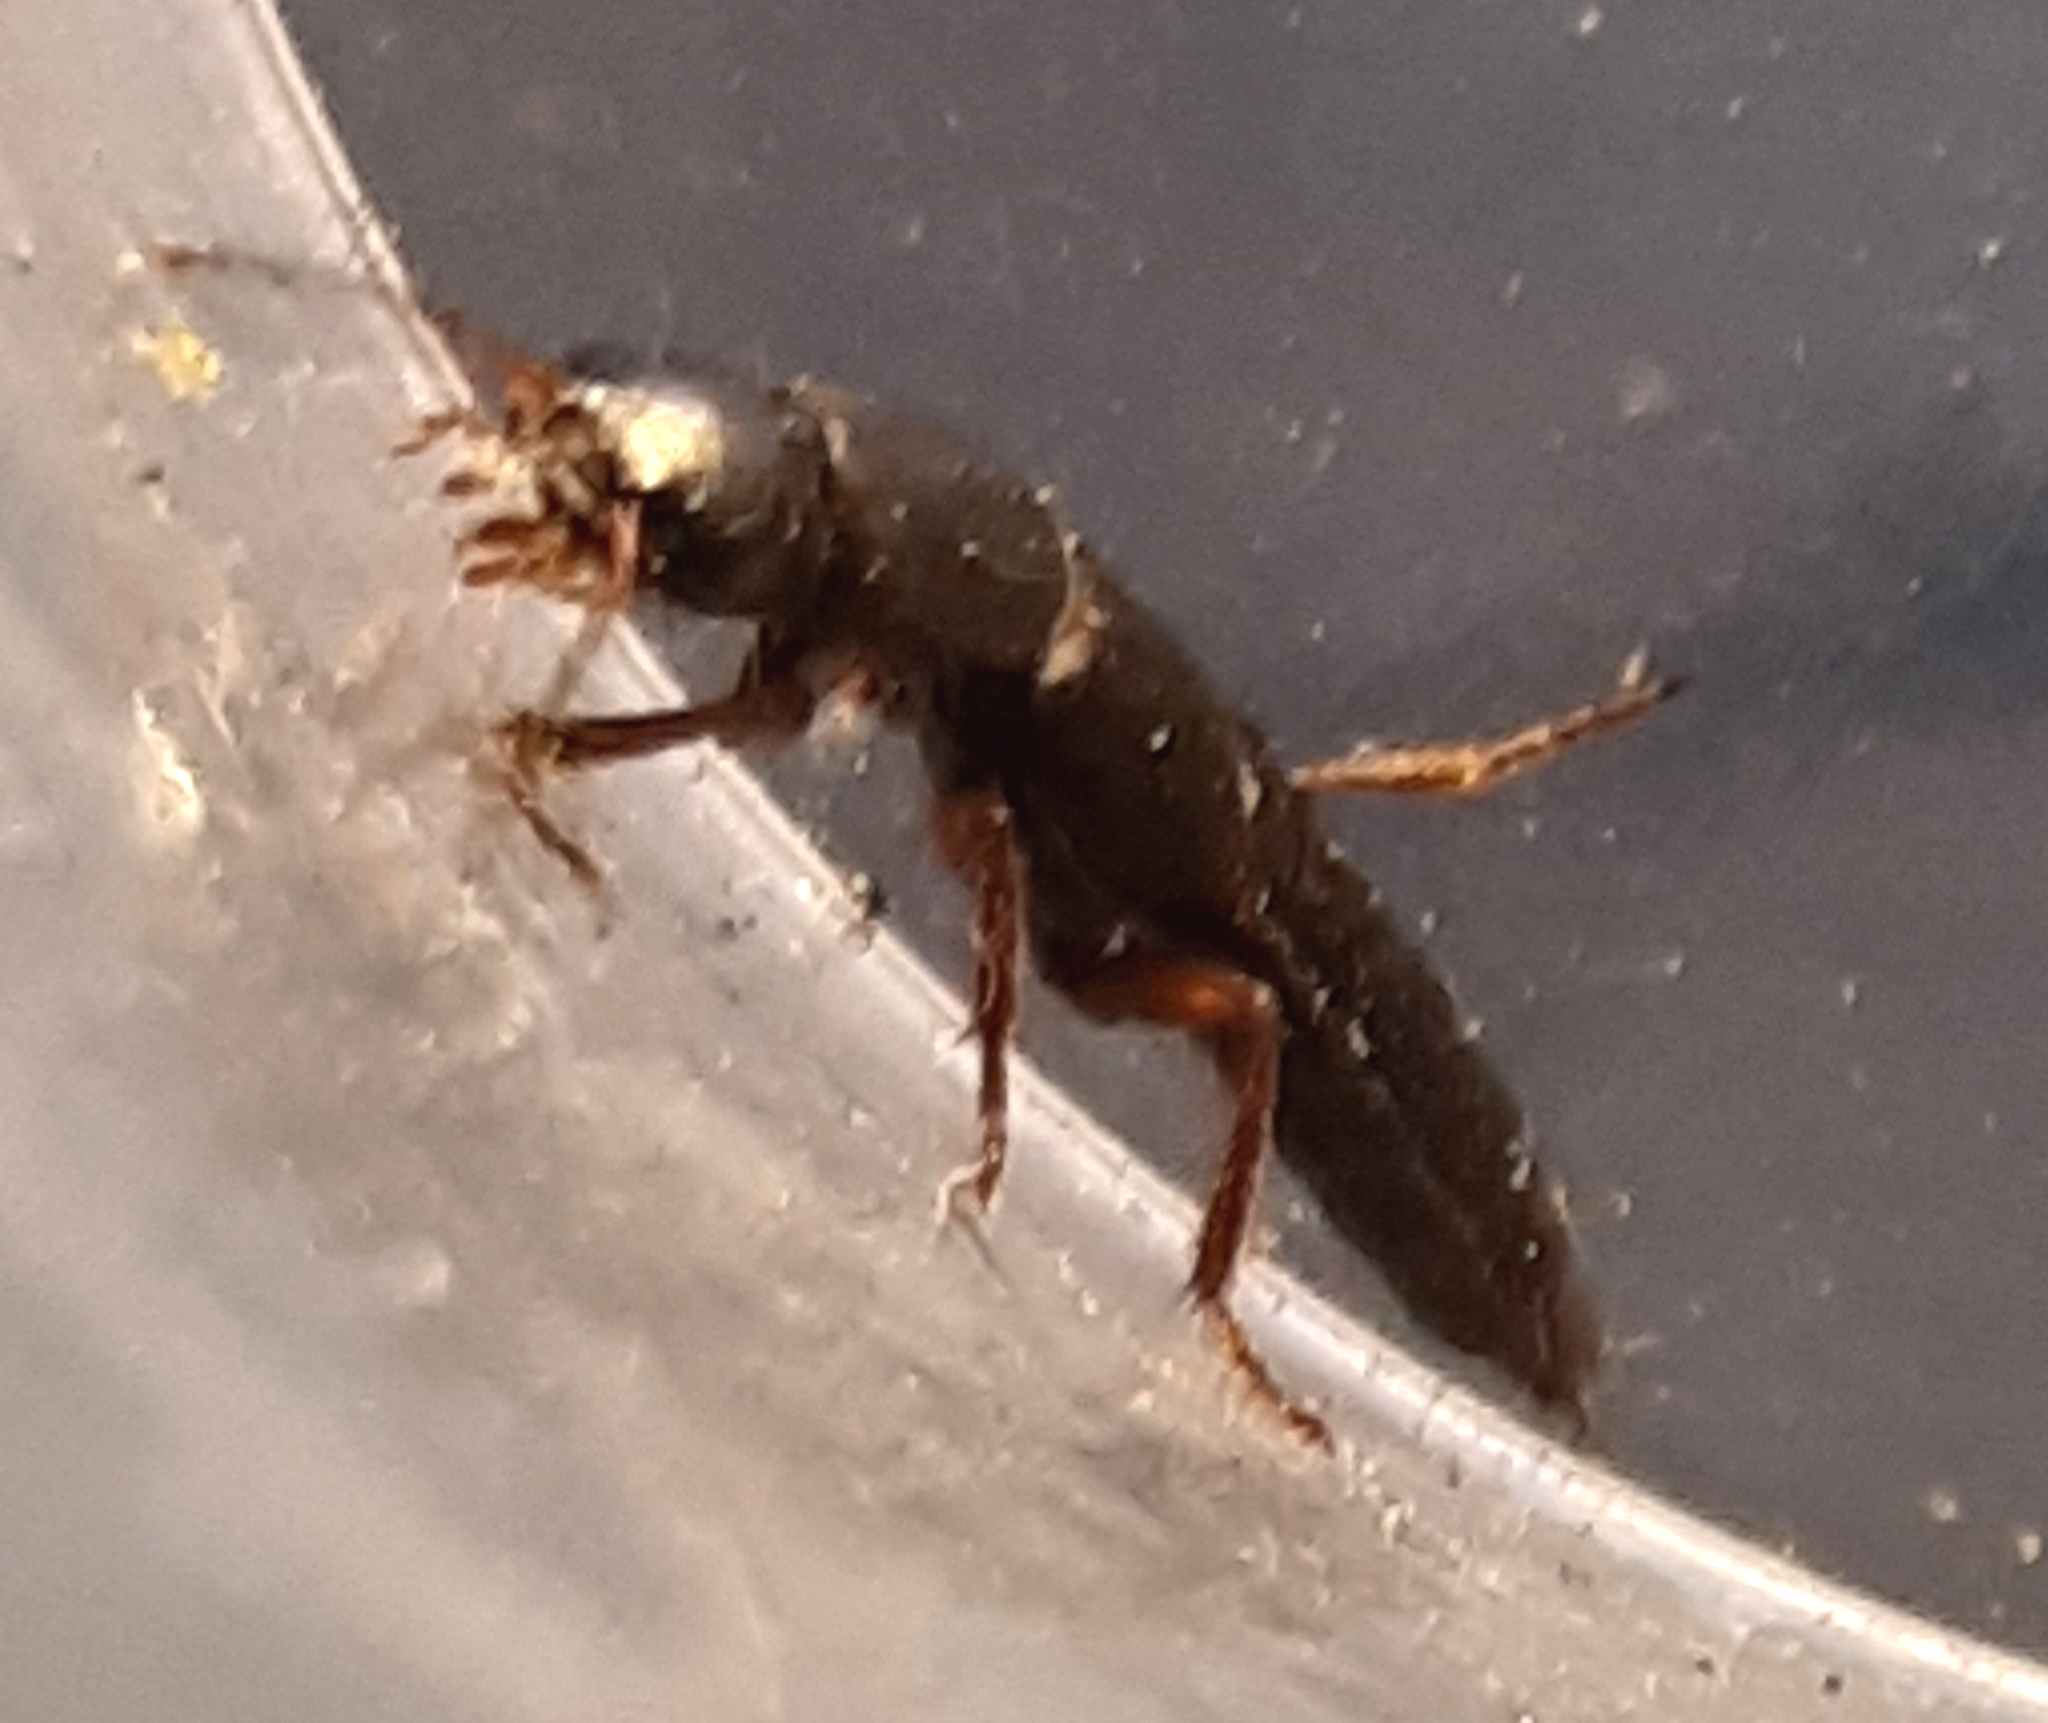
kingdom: Animalia
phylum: Arthropoda
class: Insecta
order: Coleoptera
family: Staphylinidae
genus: Tasgius
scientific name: Tasgius morsitans
